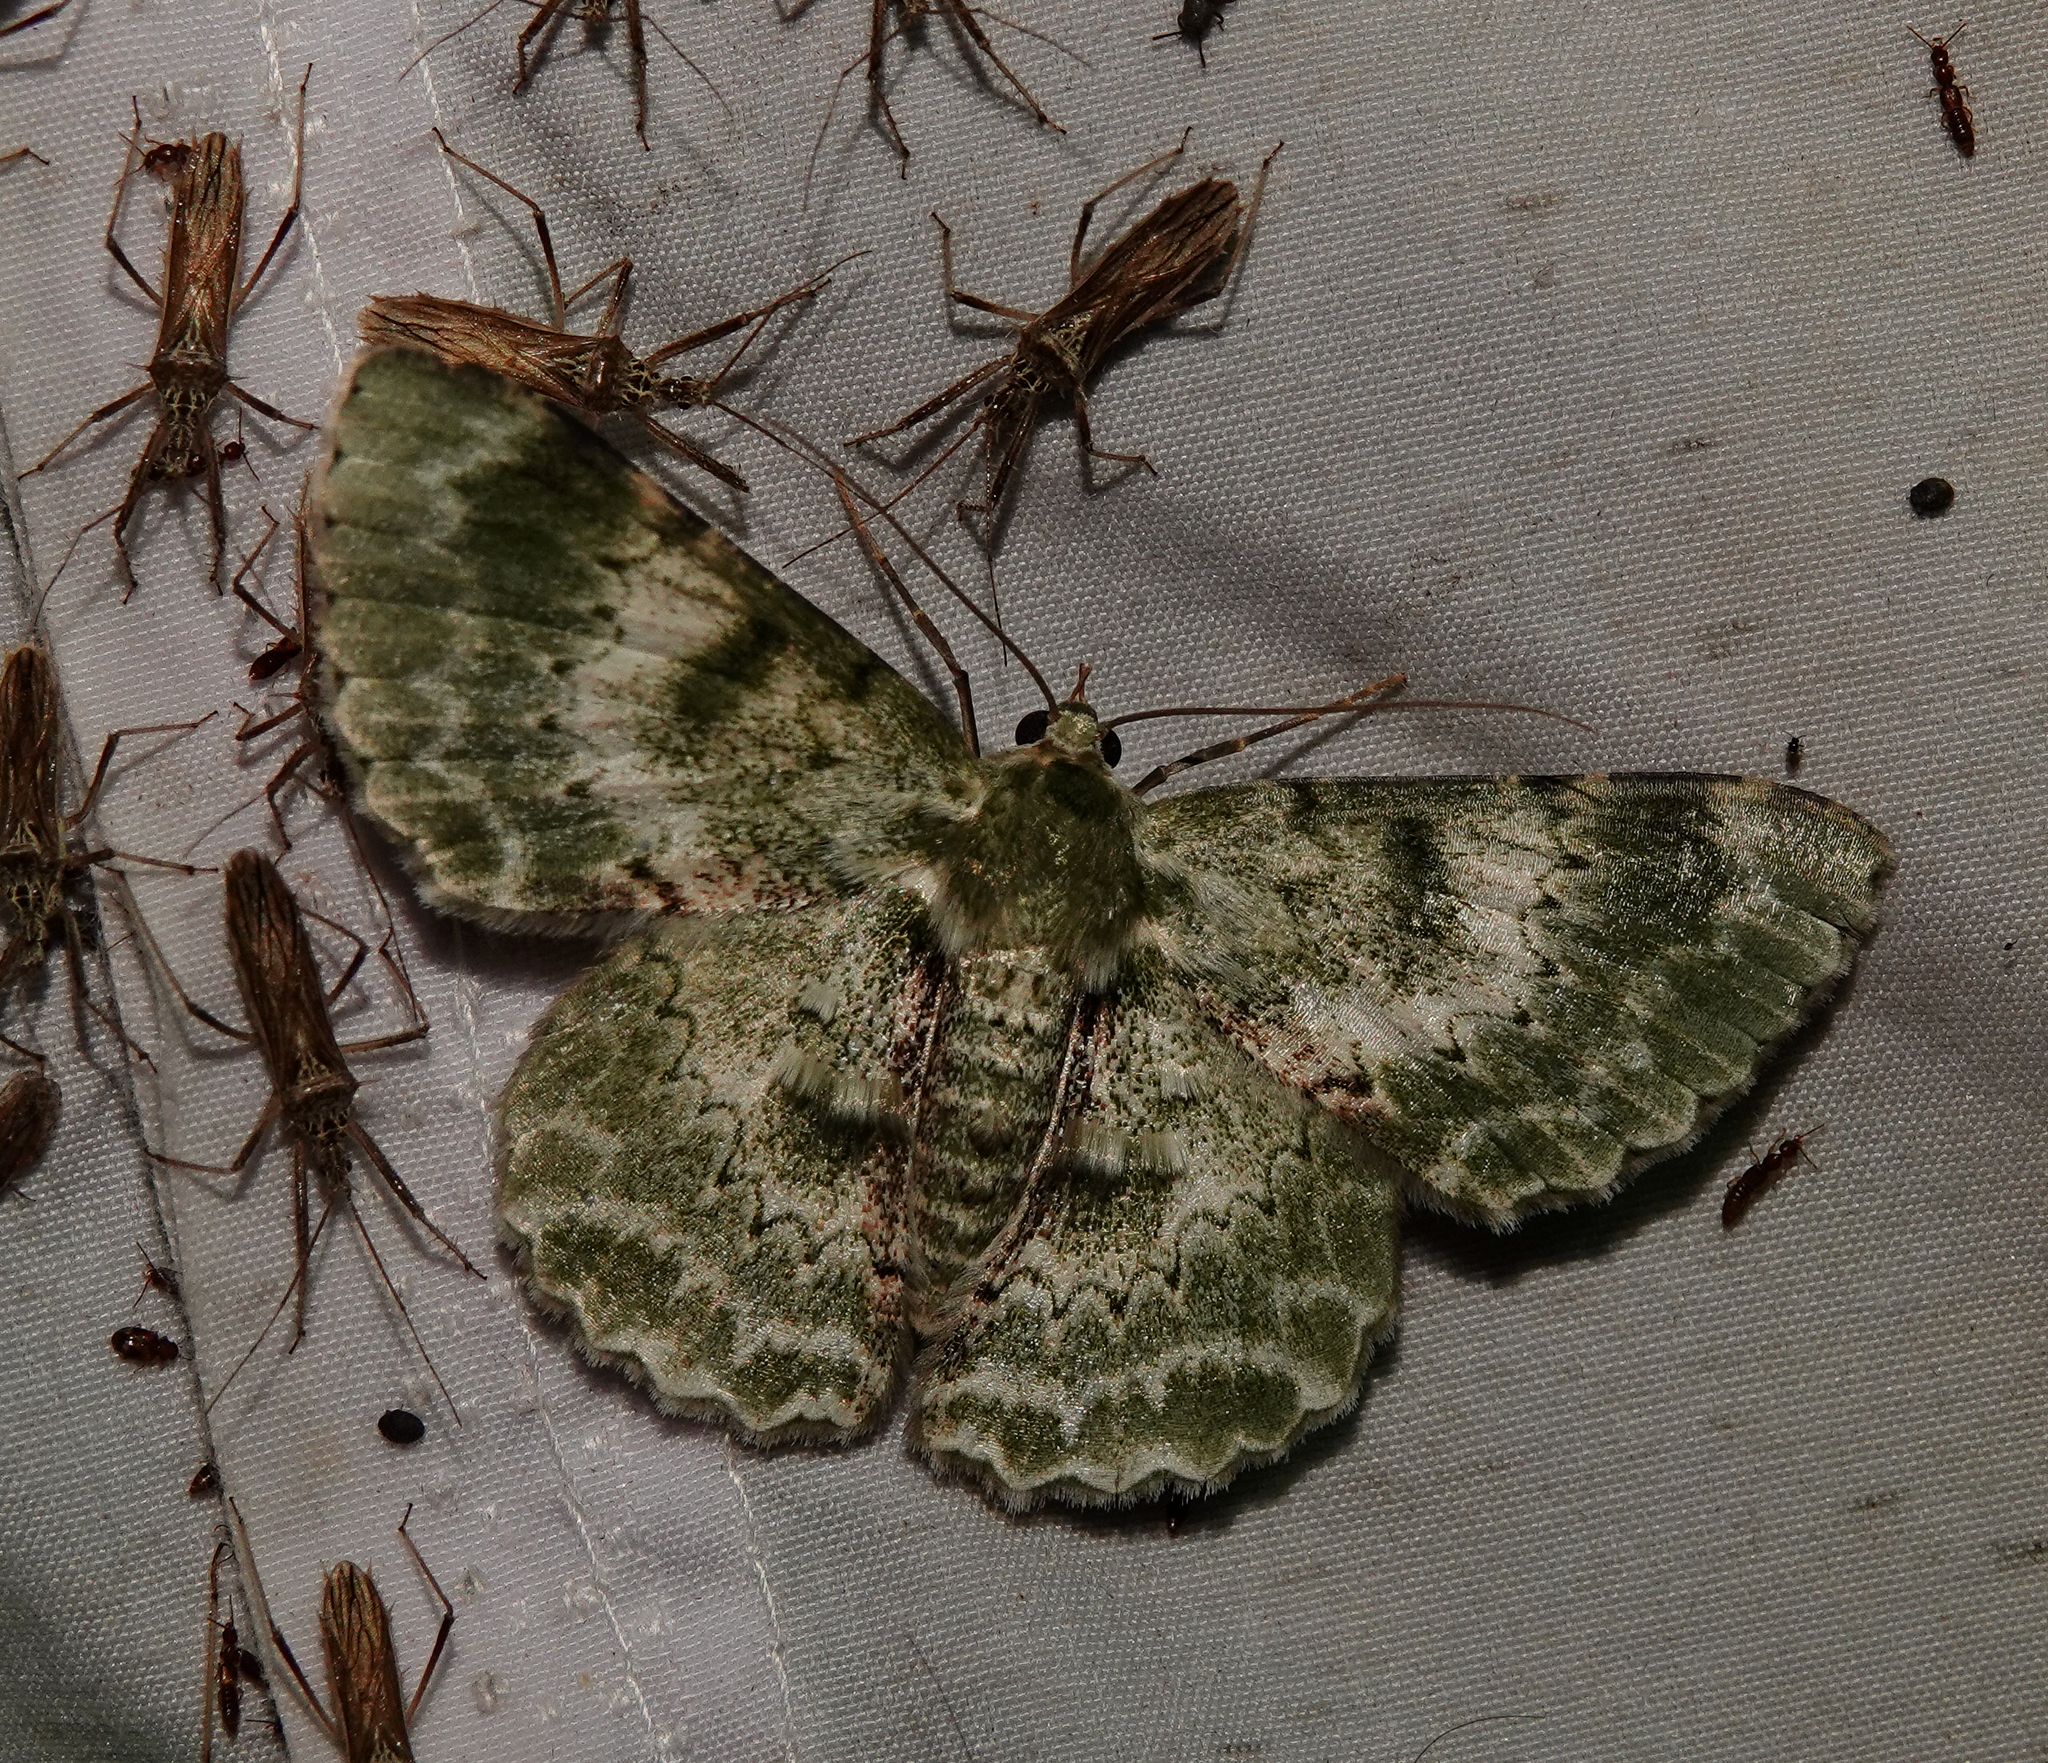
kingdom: Animalia
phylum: Arthropoda
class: Insecta
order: Lepidoptera
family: Geometridae
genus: Pingasa
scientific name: Pingasa subviridis
